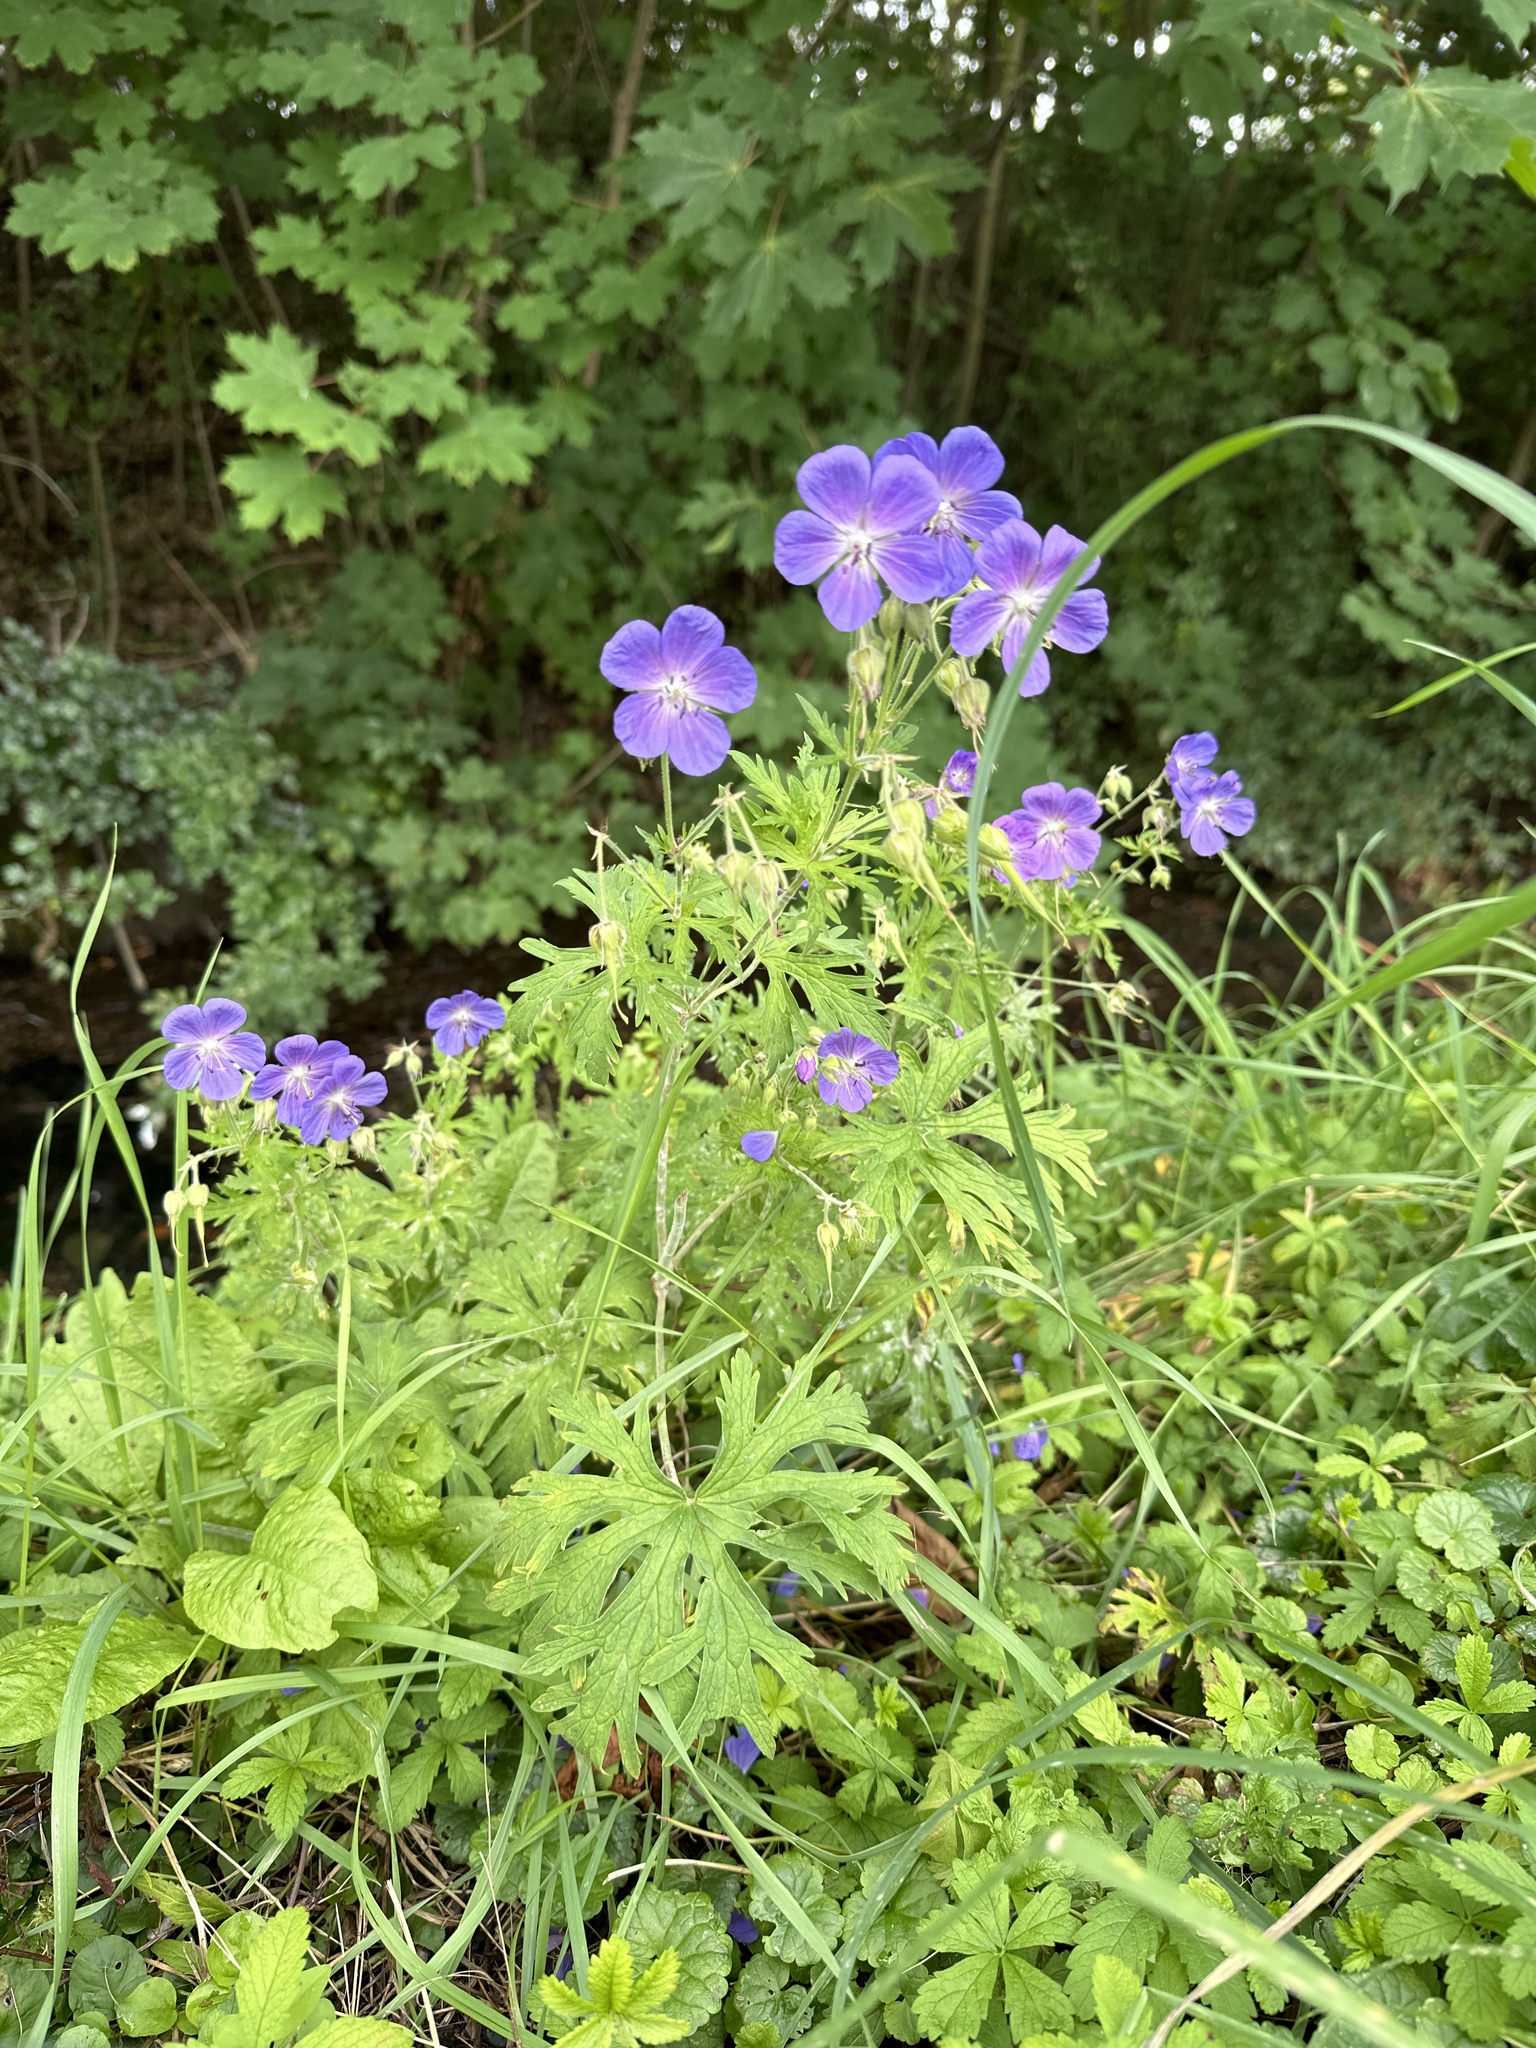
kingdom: Plantae
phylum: Tracheophyta
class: Magnoliopsida
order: Geraniales
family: Geraniaceae
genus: Geranium
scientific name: Geranium pratense
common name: Meadow crane's-bill
